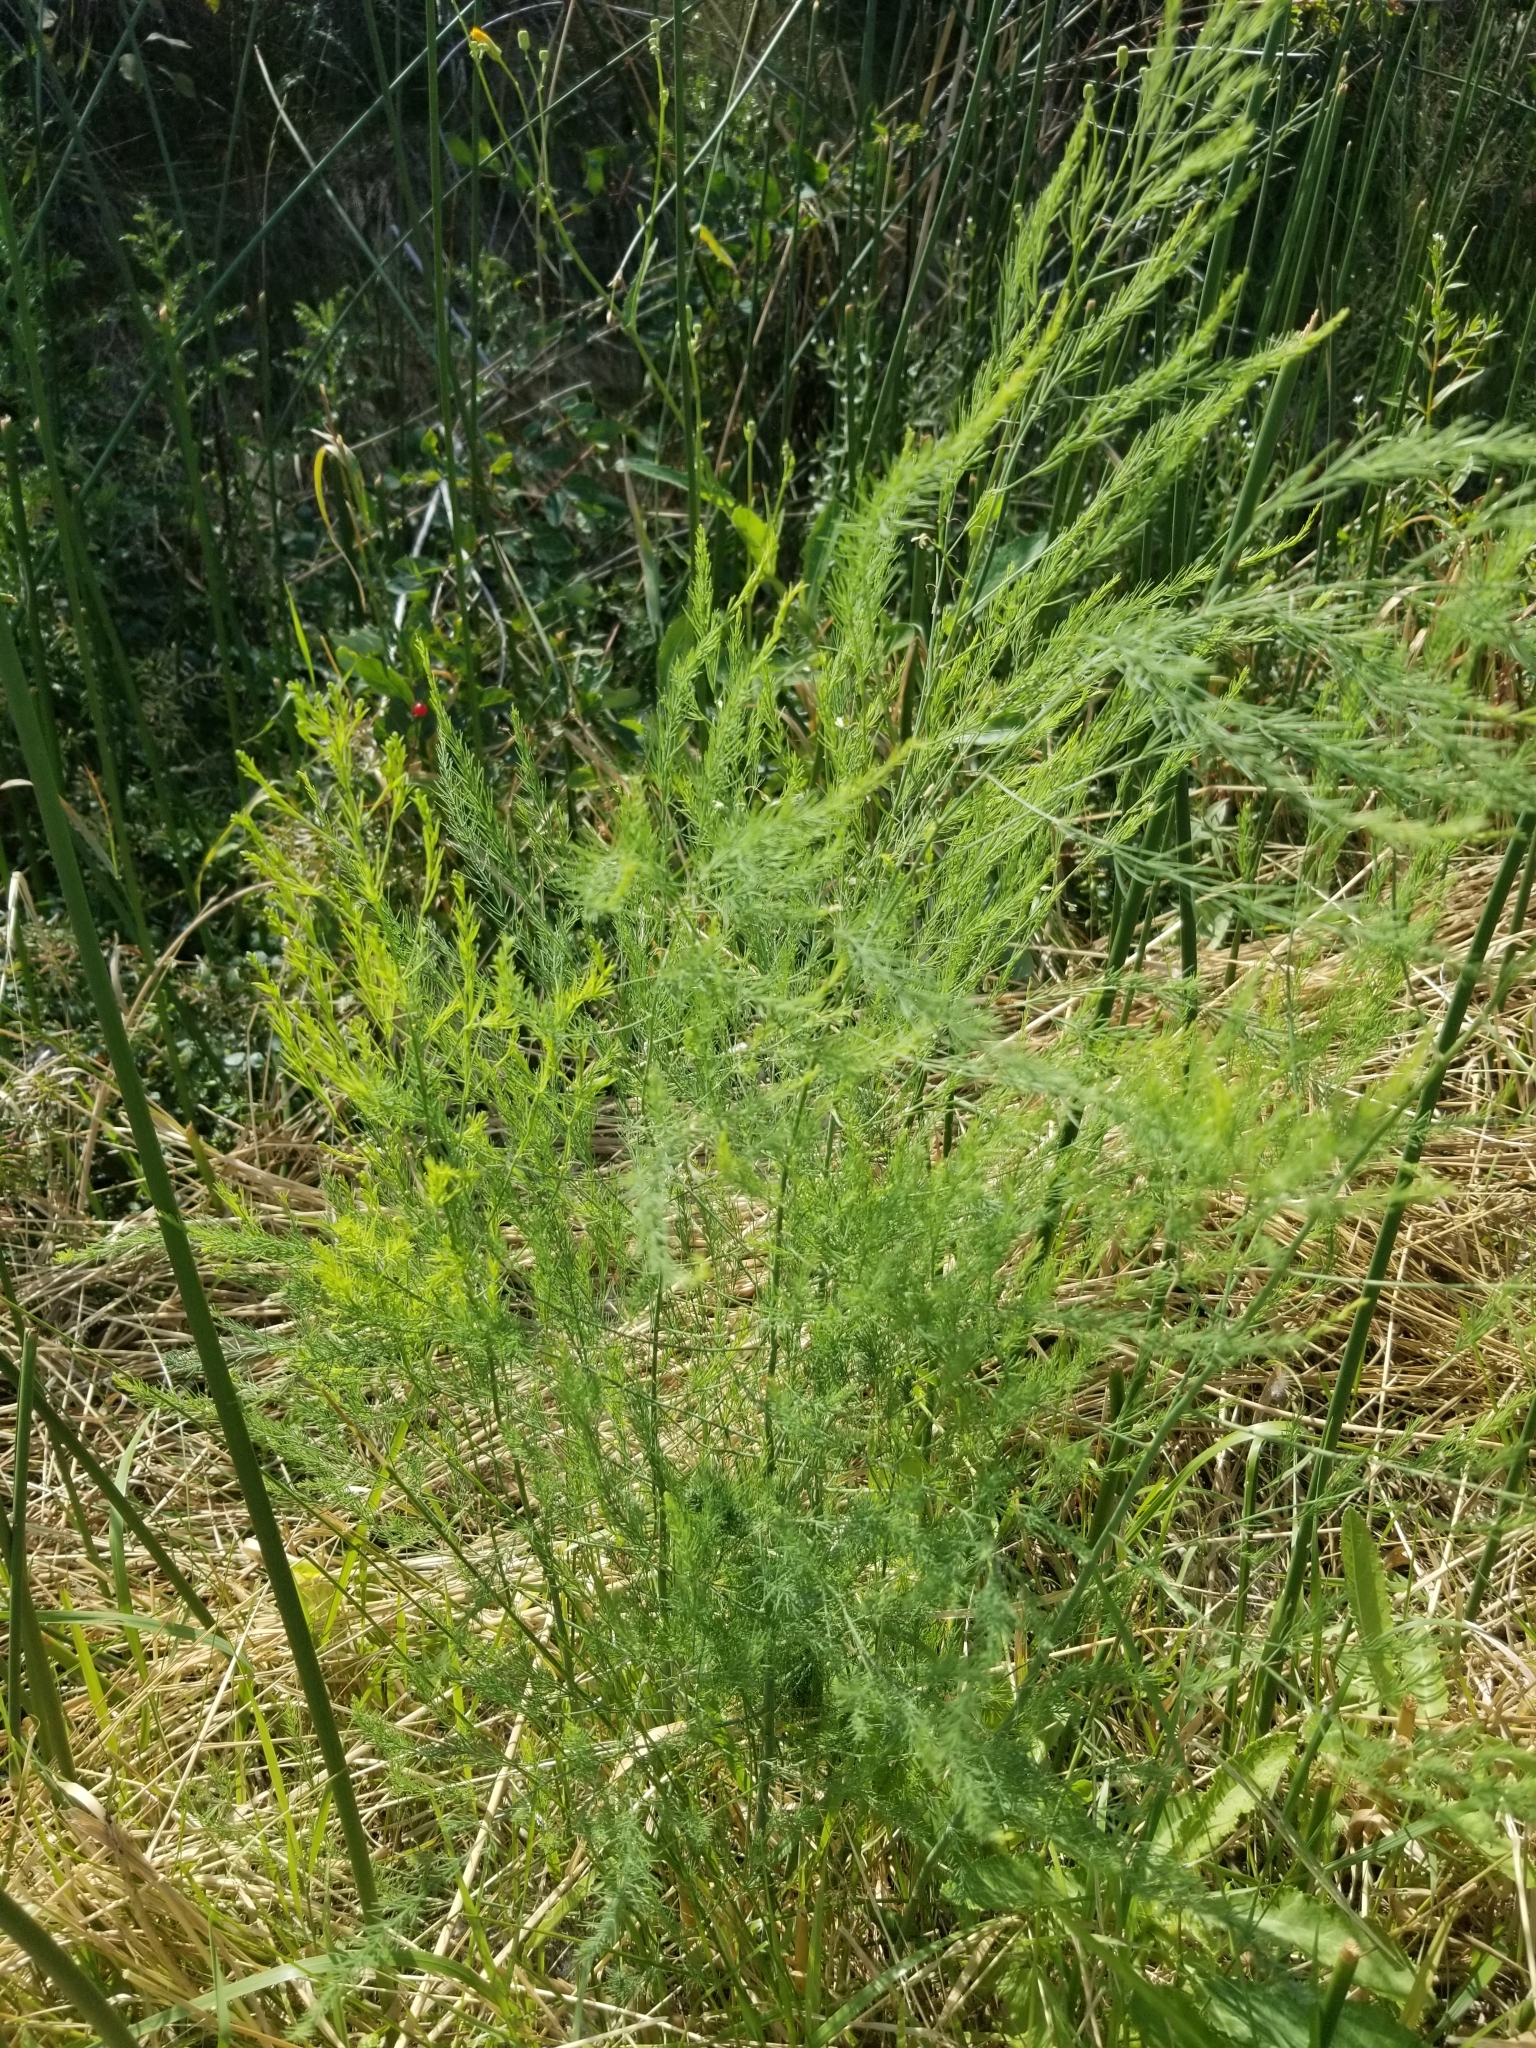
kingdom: Plantae
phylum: Tracheophyta
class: Liliopsida
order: Asparagales
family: Asparagaceae
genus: Asparagus
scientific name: Asparagus officinalis
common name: Garden asparagus
